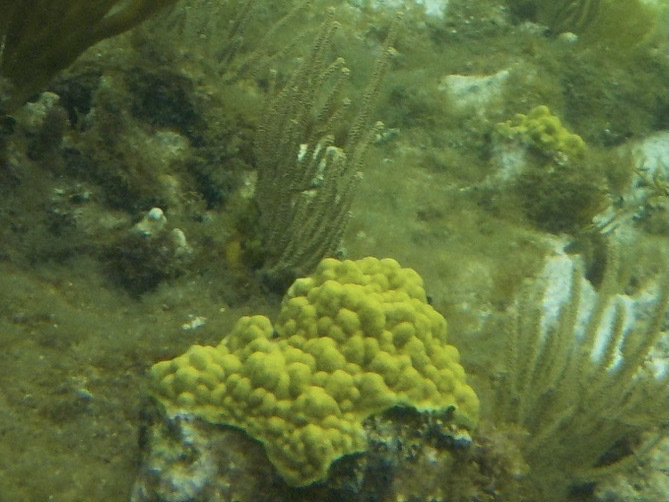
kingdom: Animalia
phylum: Cnidaria
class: Anthozoa
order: Scleractinia
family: Poritidae
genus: Porites
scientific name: Porites astreoides
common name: Mustard hill coral
